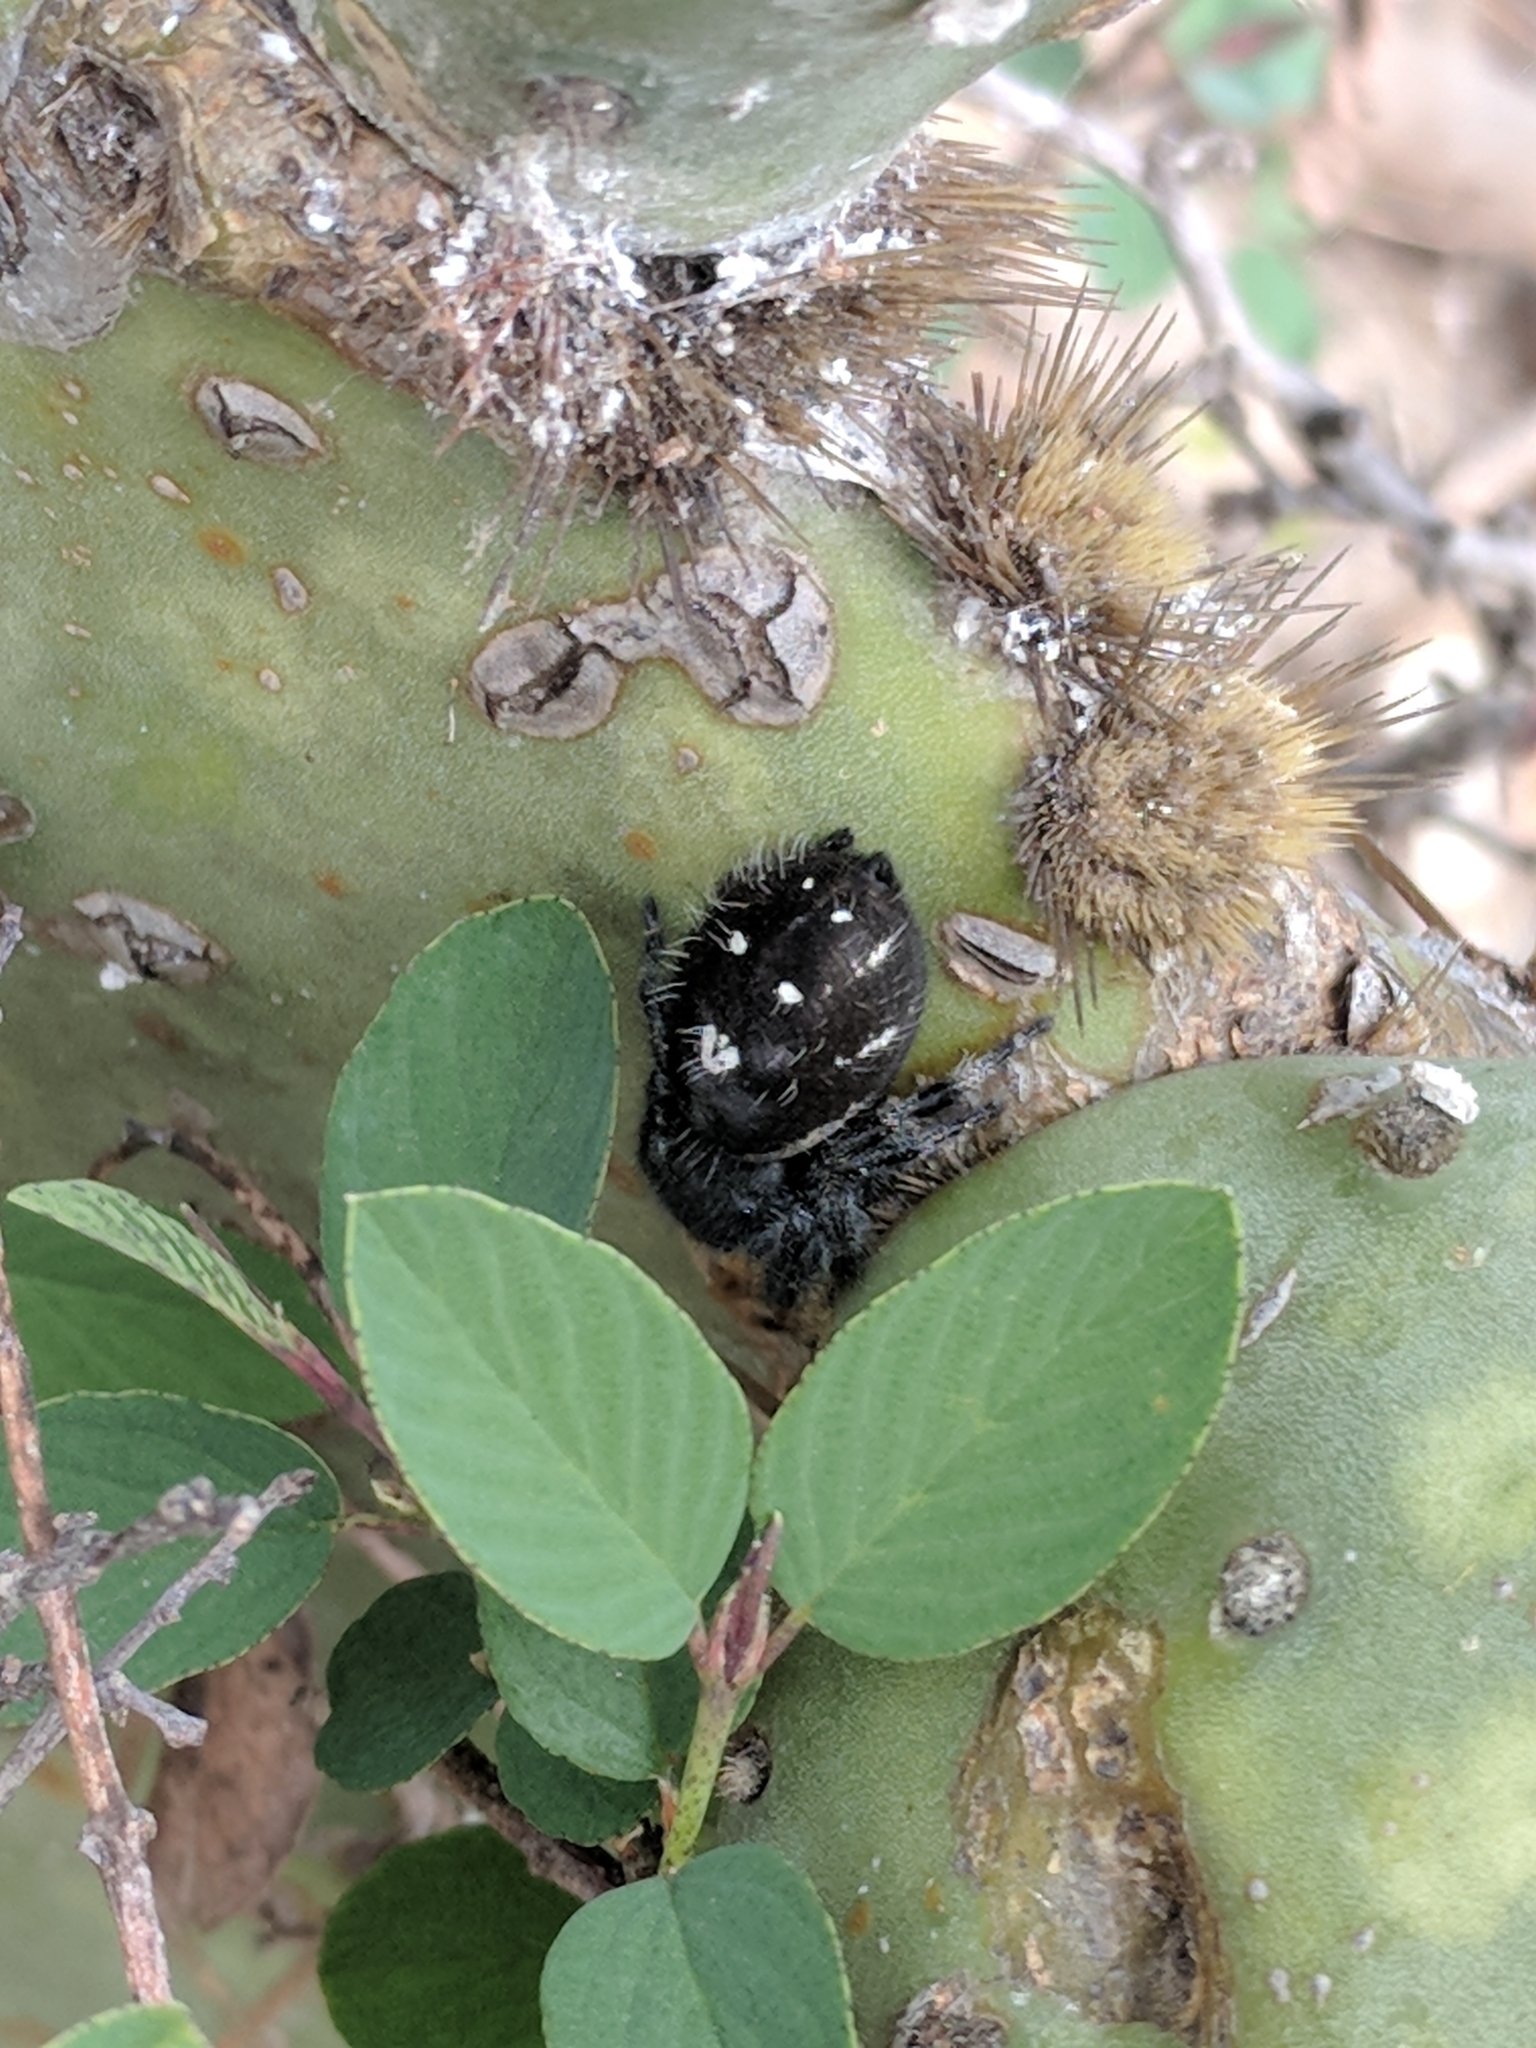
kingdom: Animalia
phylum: Arthropoda
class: Arachnida
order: Araneae
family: Salticidae
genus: Phidippus
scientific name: Phidippus audax
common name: Bold jumper
